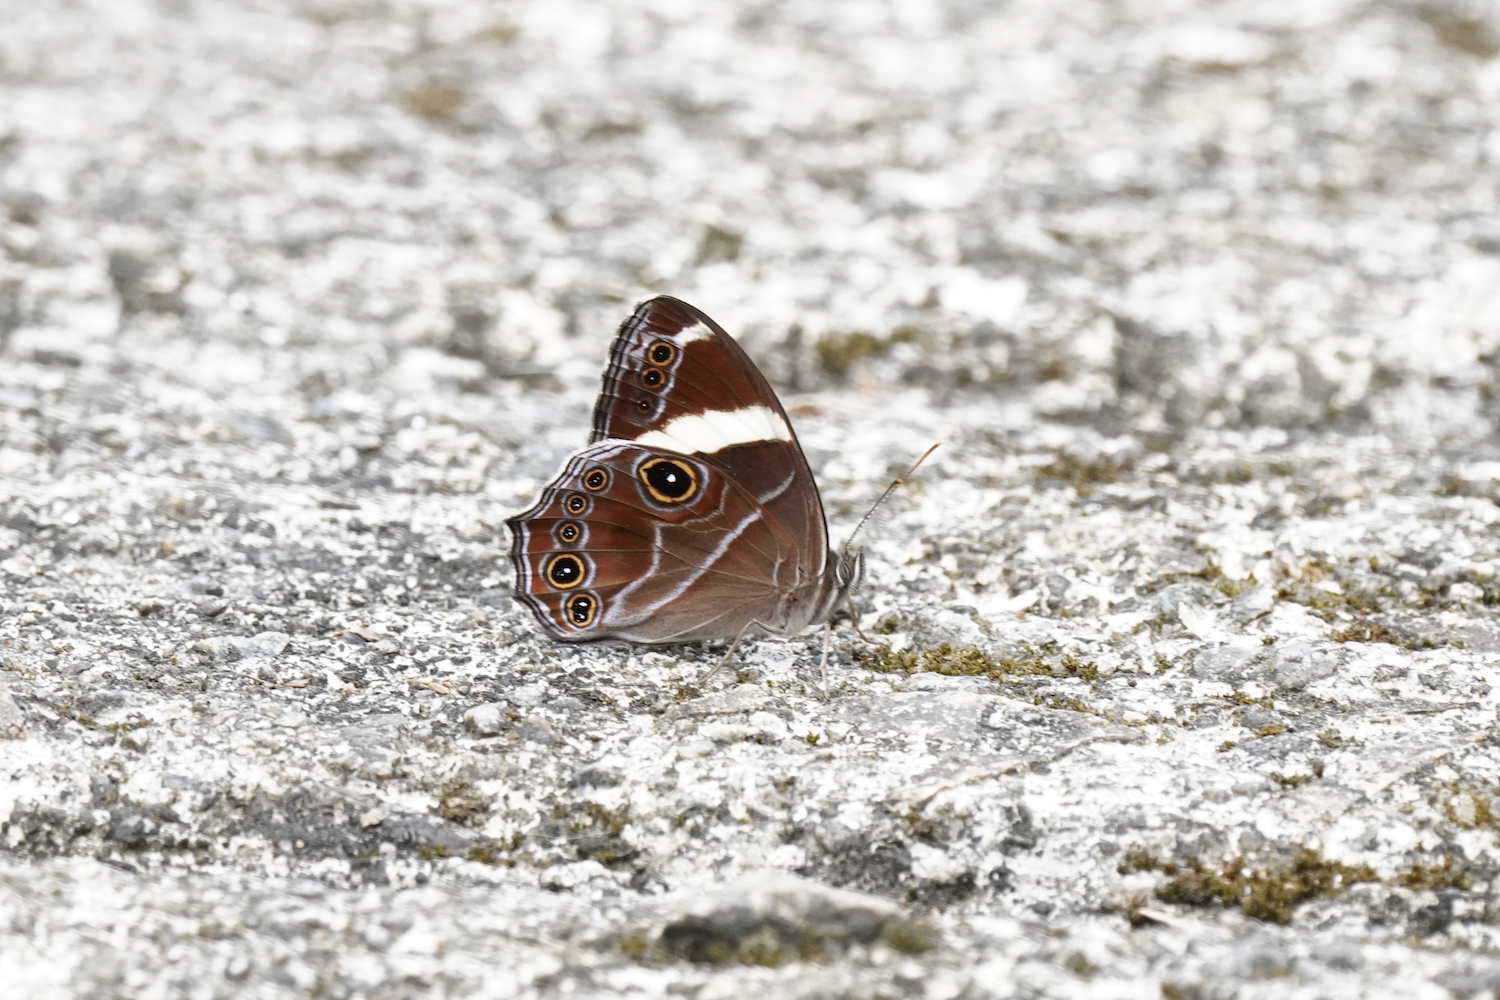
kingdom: Animalia
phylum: Arthropoda
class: Insecta
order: Lepidoptera
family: Nymphalidae
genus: Lethe
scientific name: Lethe confusa
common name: Banded treebrown
